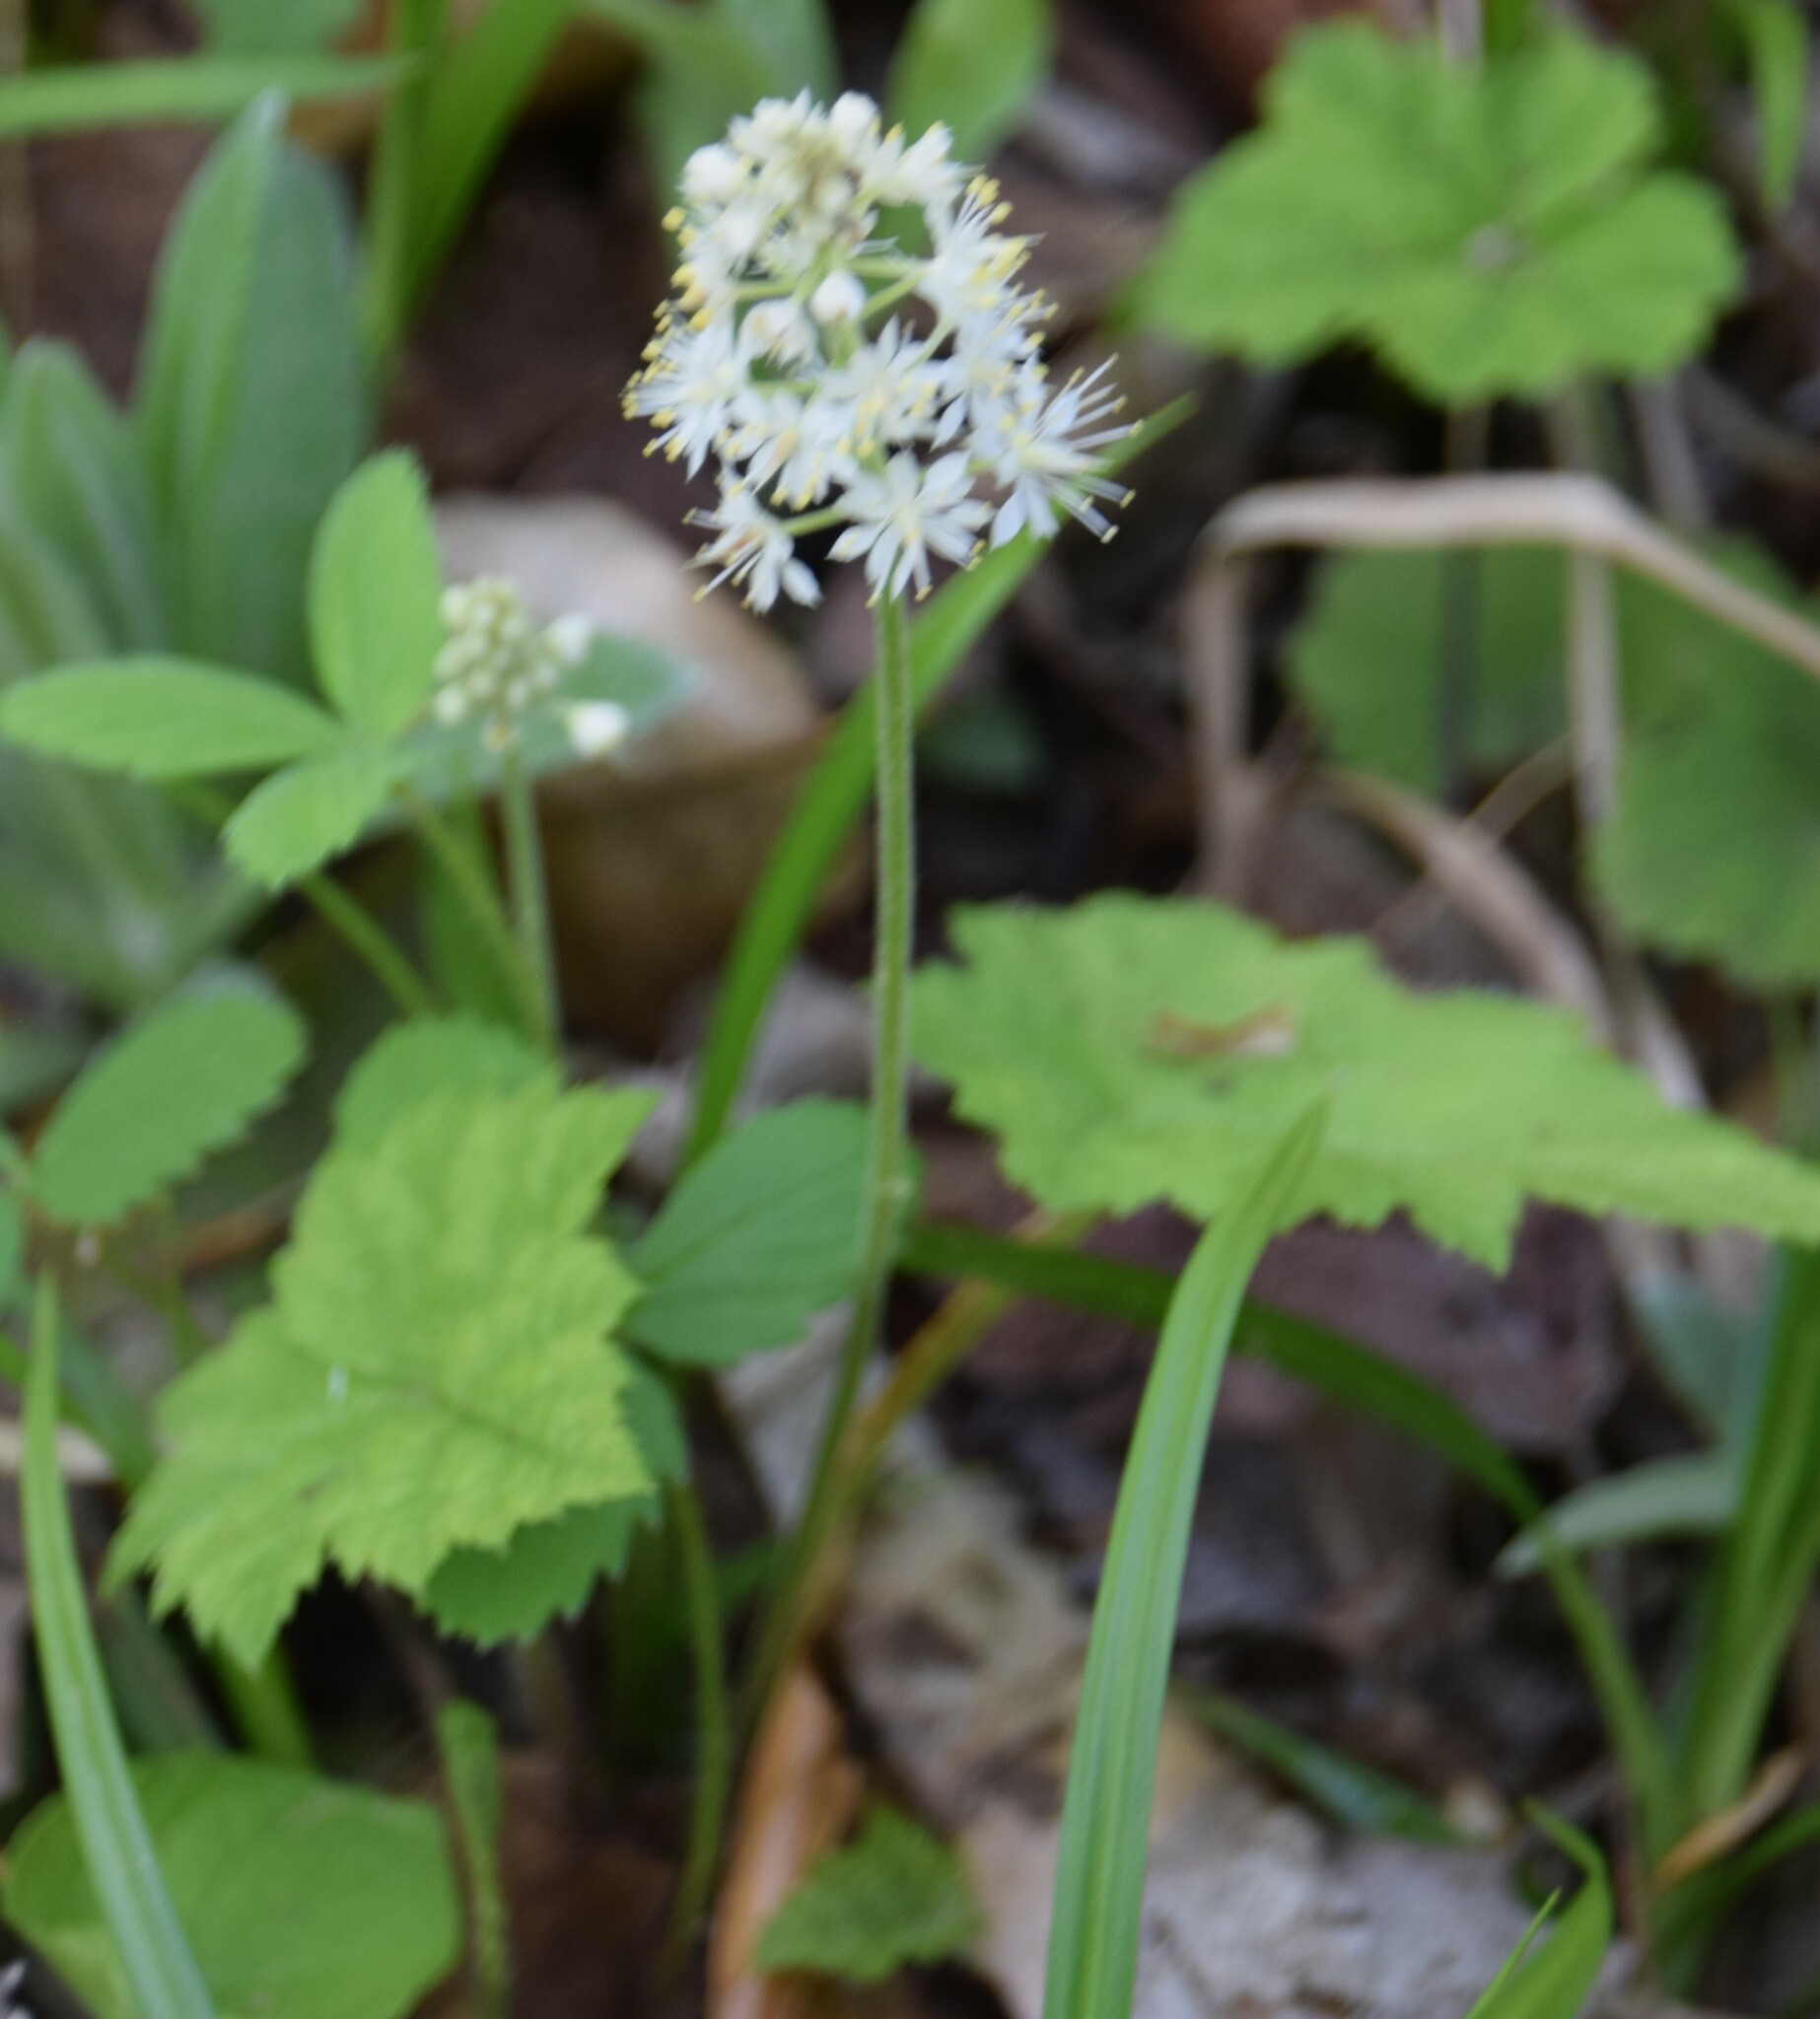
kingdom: Plantae
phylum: Tracheophyta
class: Magnoliopsida
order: Saxifragales
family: Saxifragaceae
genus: Tiarella
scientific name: Tiarella stolonifera
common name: Stoloniferous foamflower
